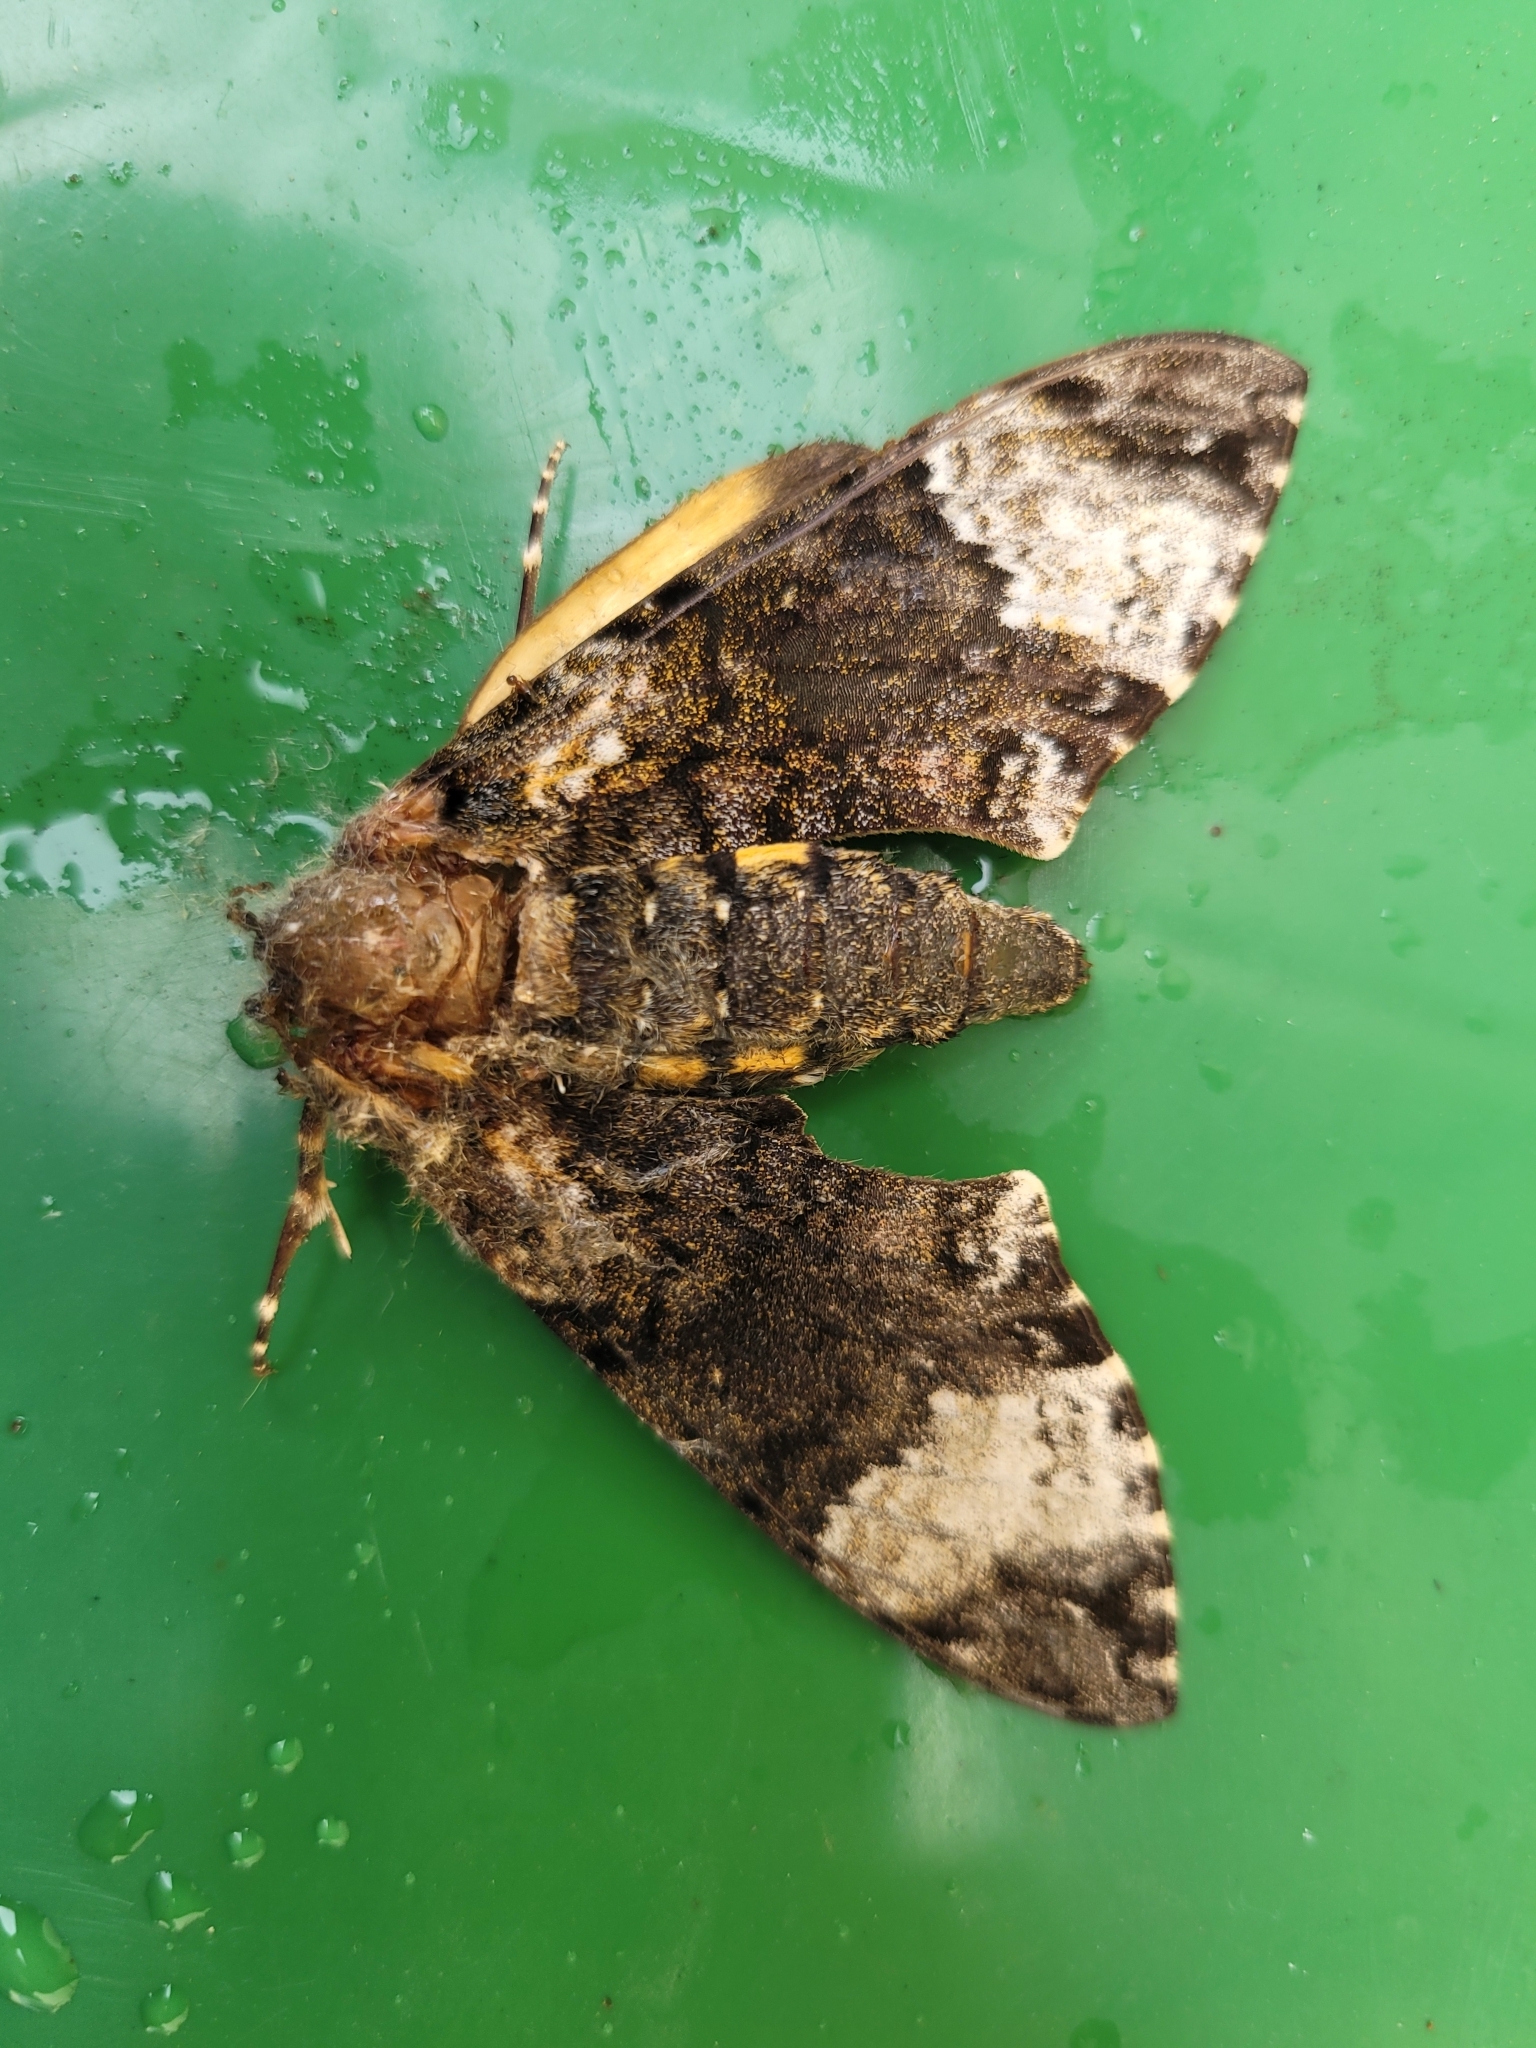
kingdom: Animalia
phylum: Arthropoda
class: Insecta
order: Lepidoptera
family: Sphingidae
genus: Coelonia
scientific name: Coelonia fulvinotata
